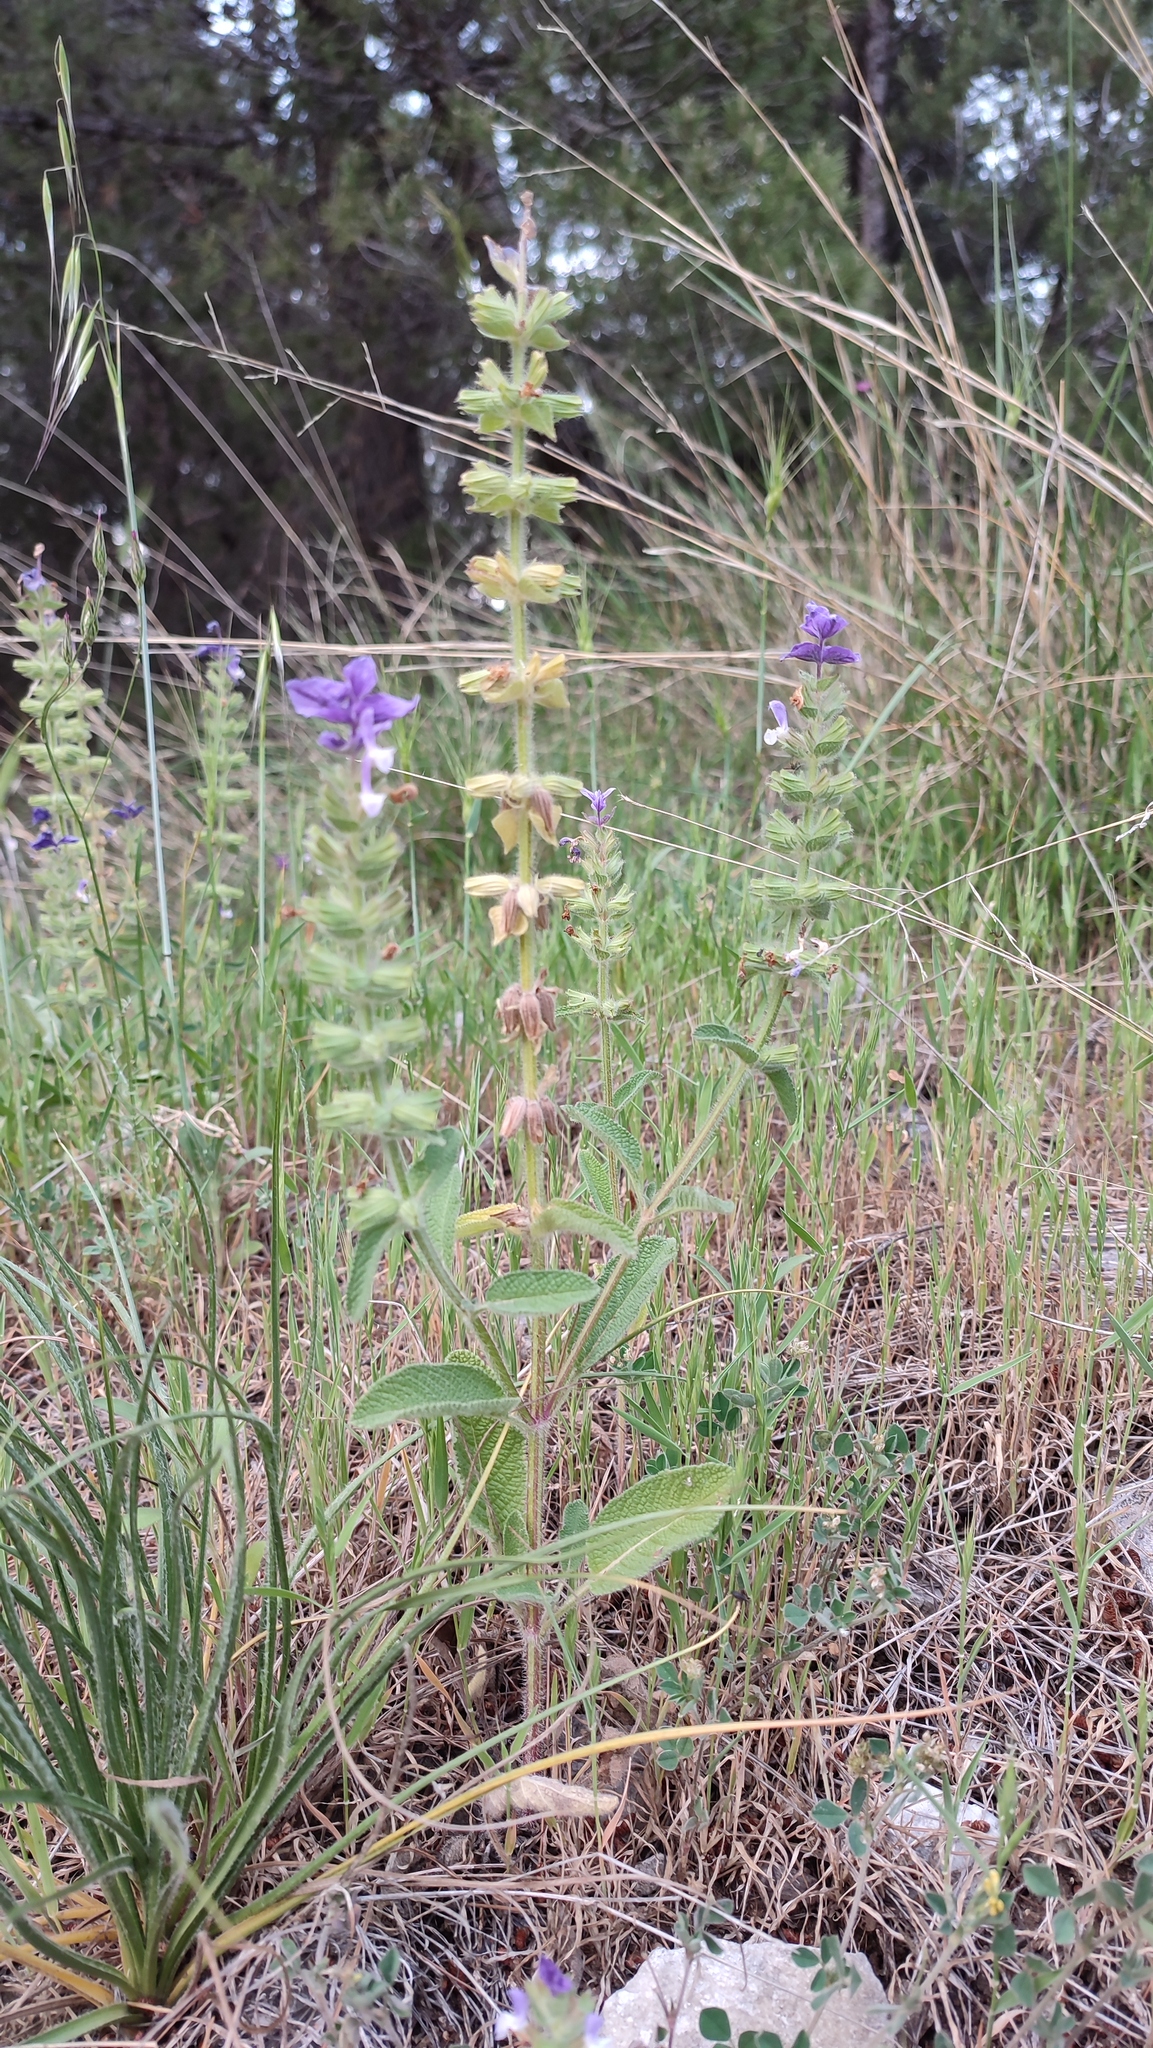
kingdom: Plantae
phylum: Tracheophyta
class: Magnoliopsida
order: Lamiales
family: Lamiaceae
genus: Salvia
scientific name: Salvia viridis
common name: Annual clary
